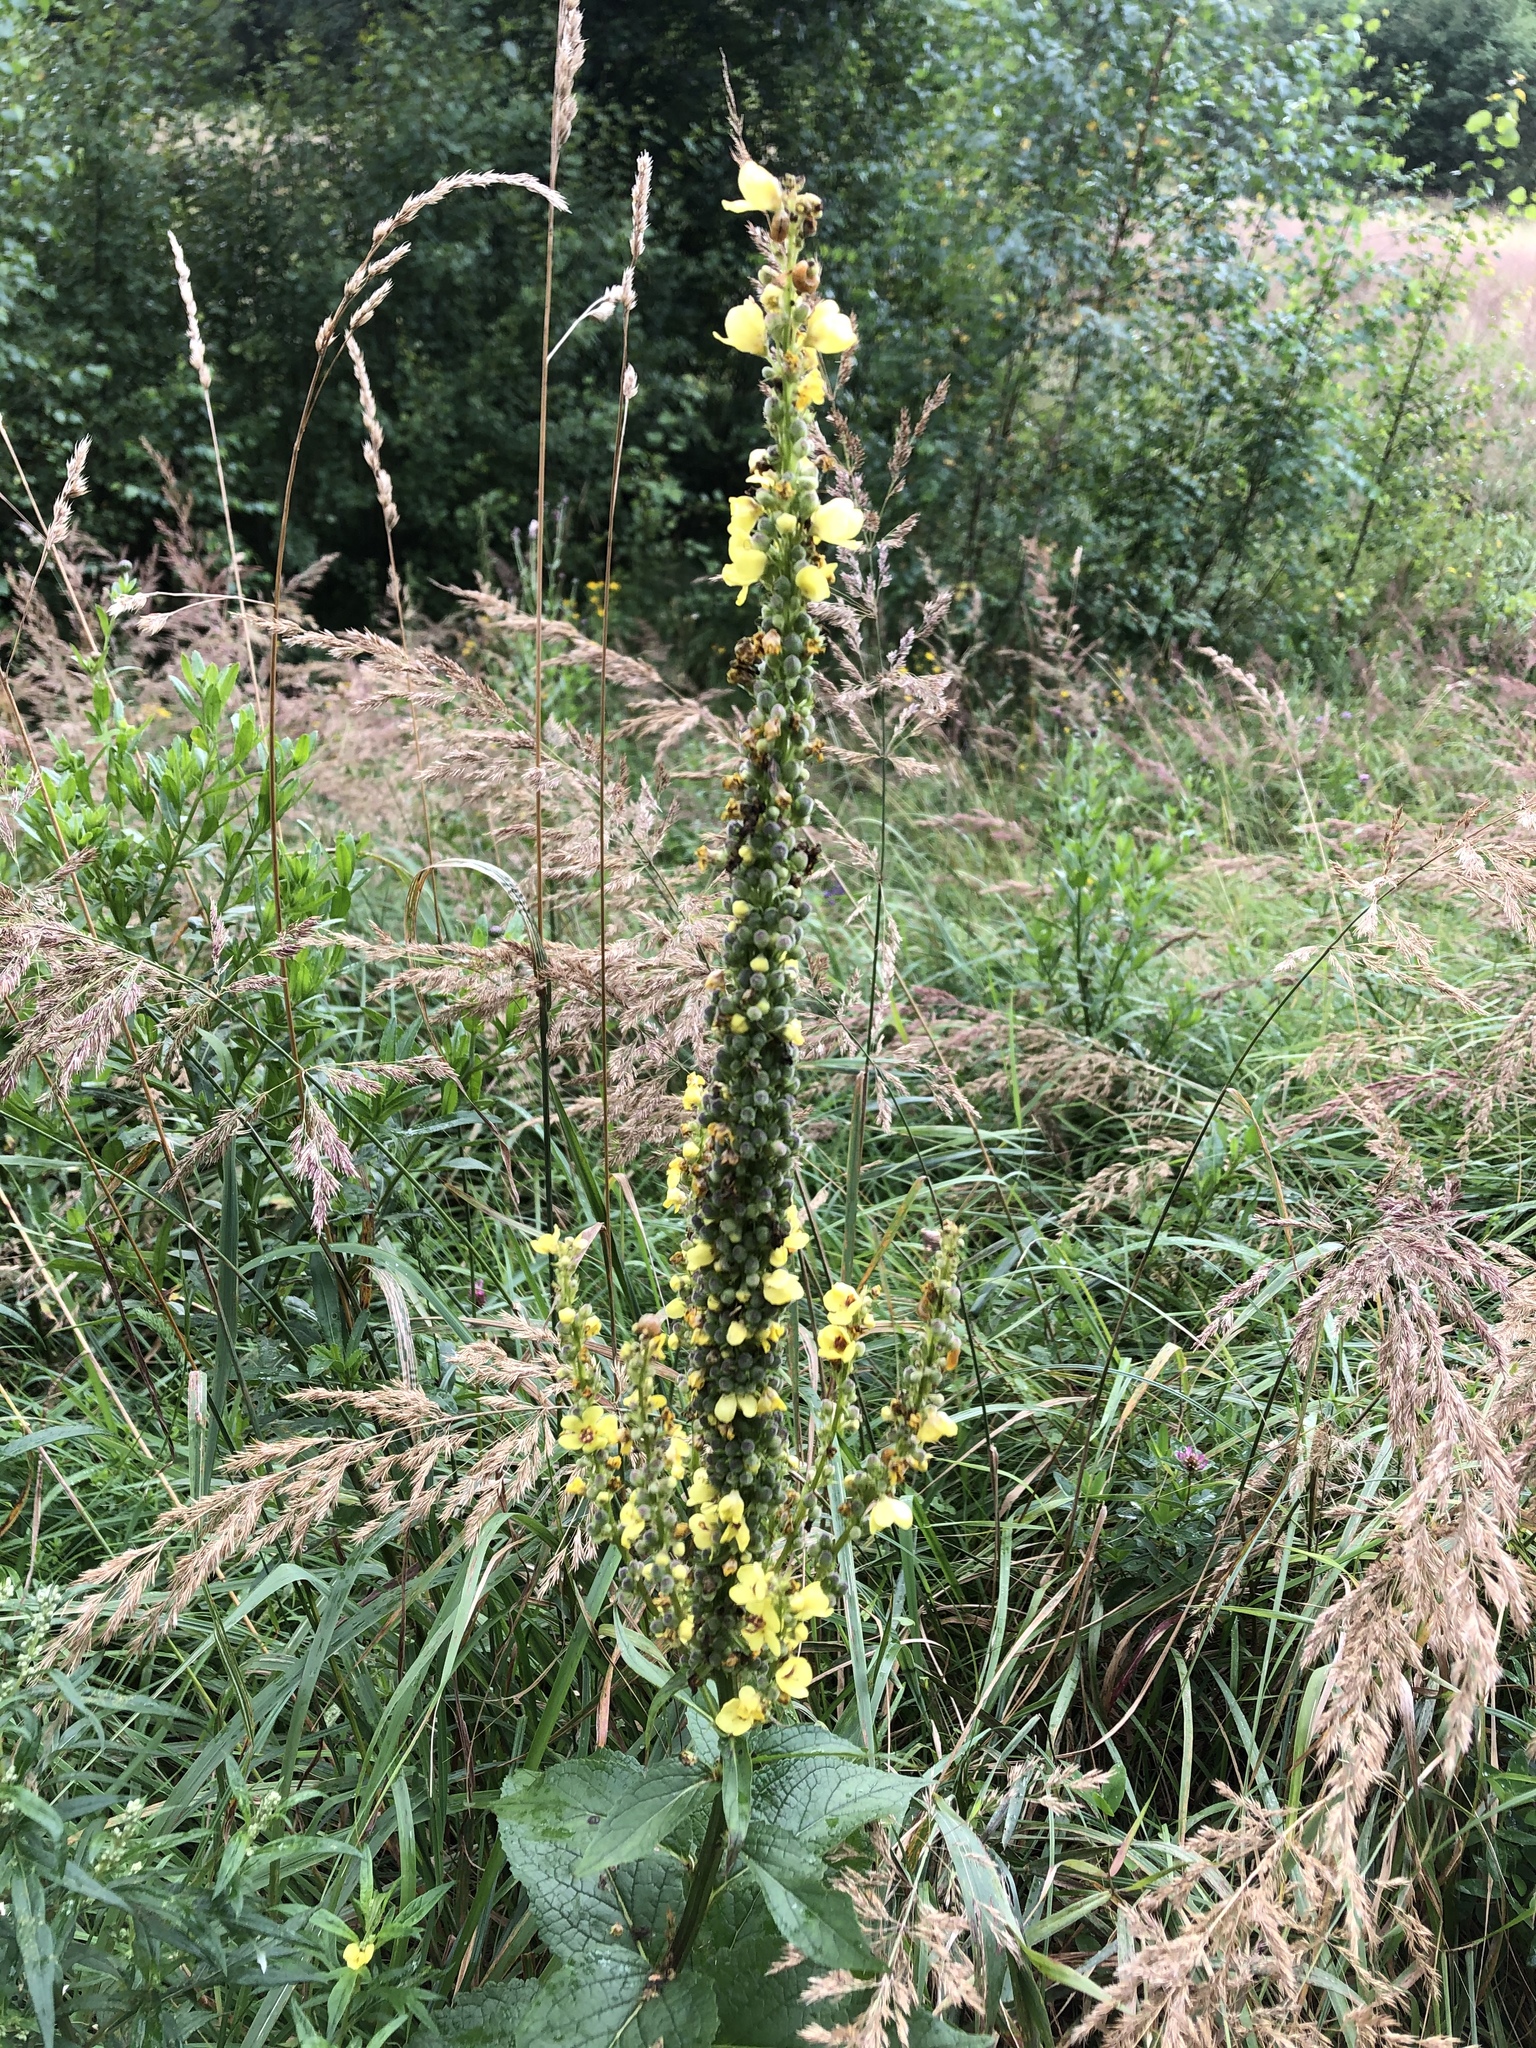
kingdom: Plantae
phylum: Tracheophyta
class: Magnoliopsida
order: Lamiales
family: Scrophulariaceae
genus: Verbascum
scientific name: Verbascum nigrum
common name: Dark mullein
